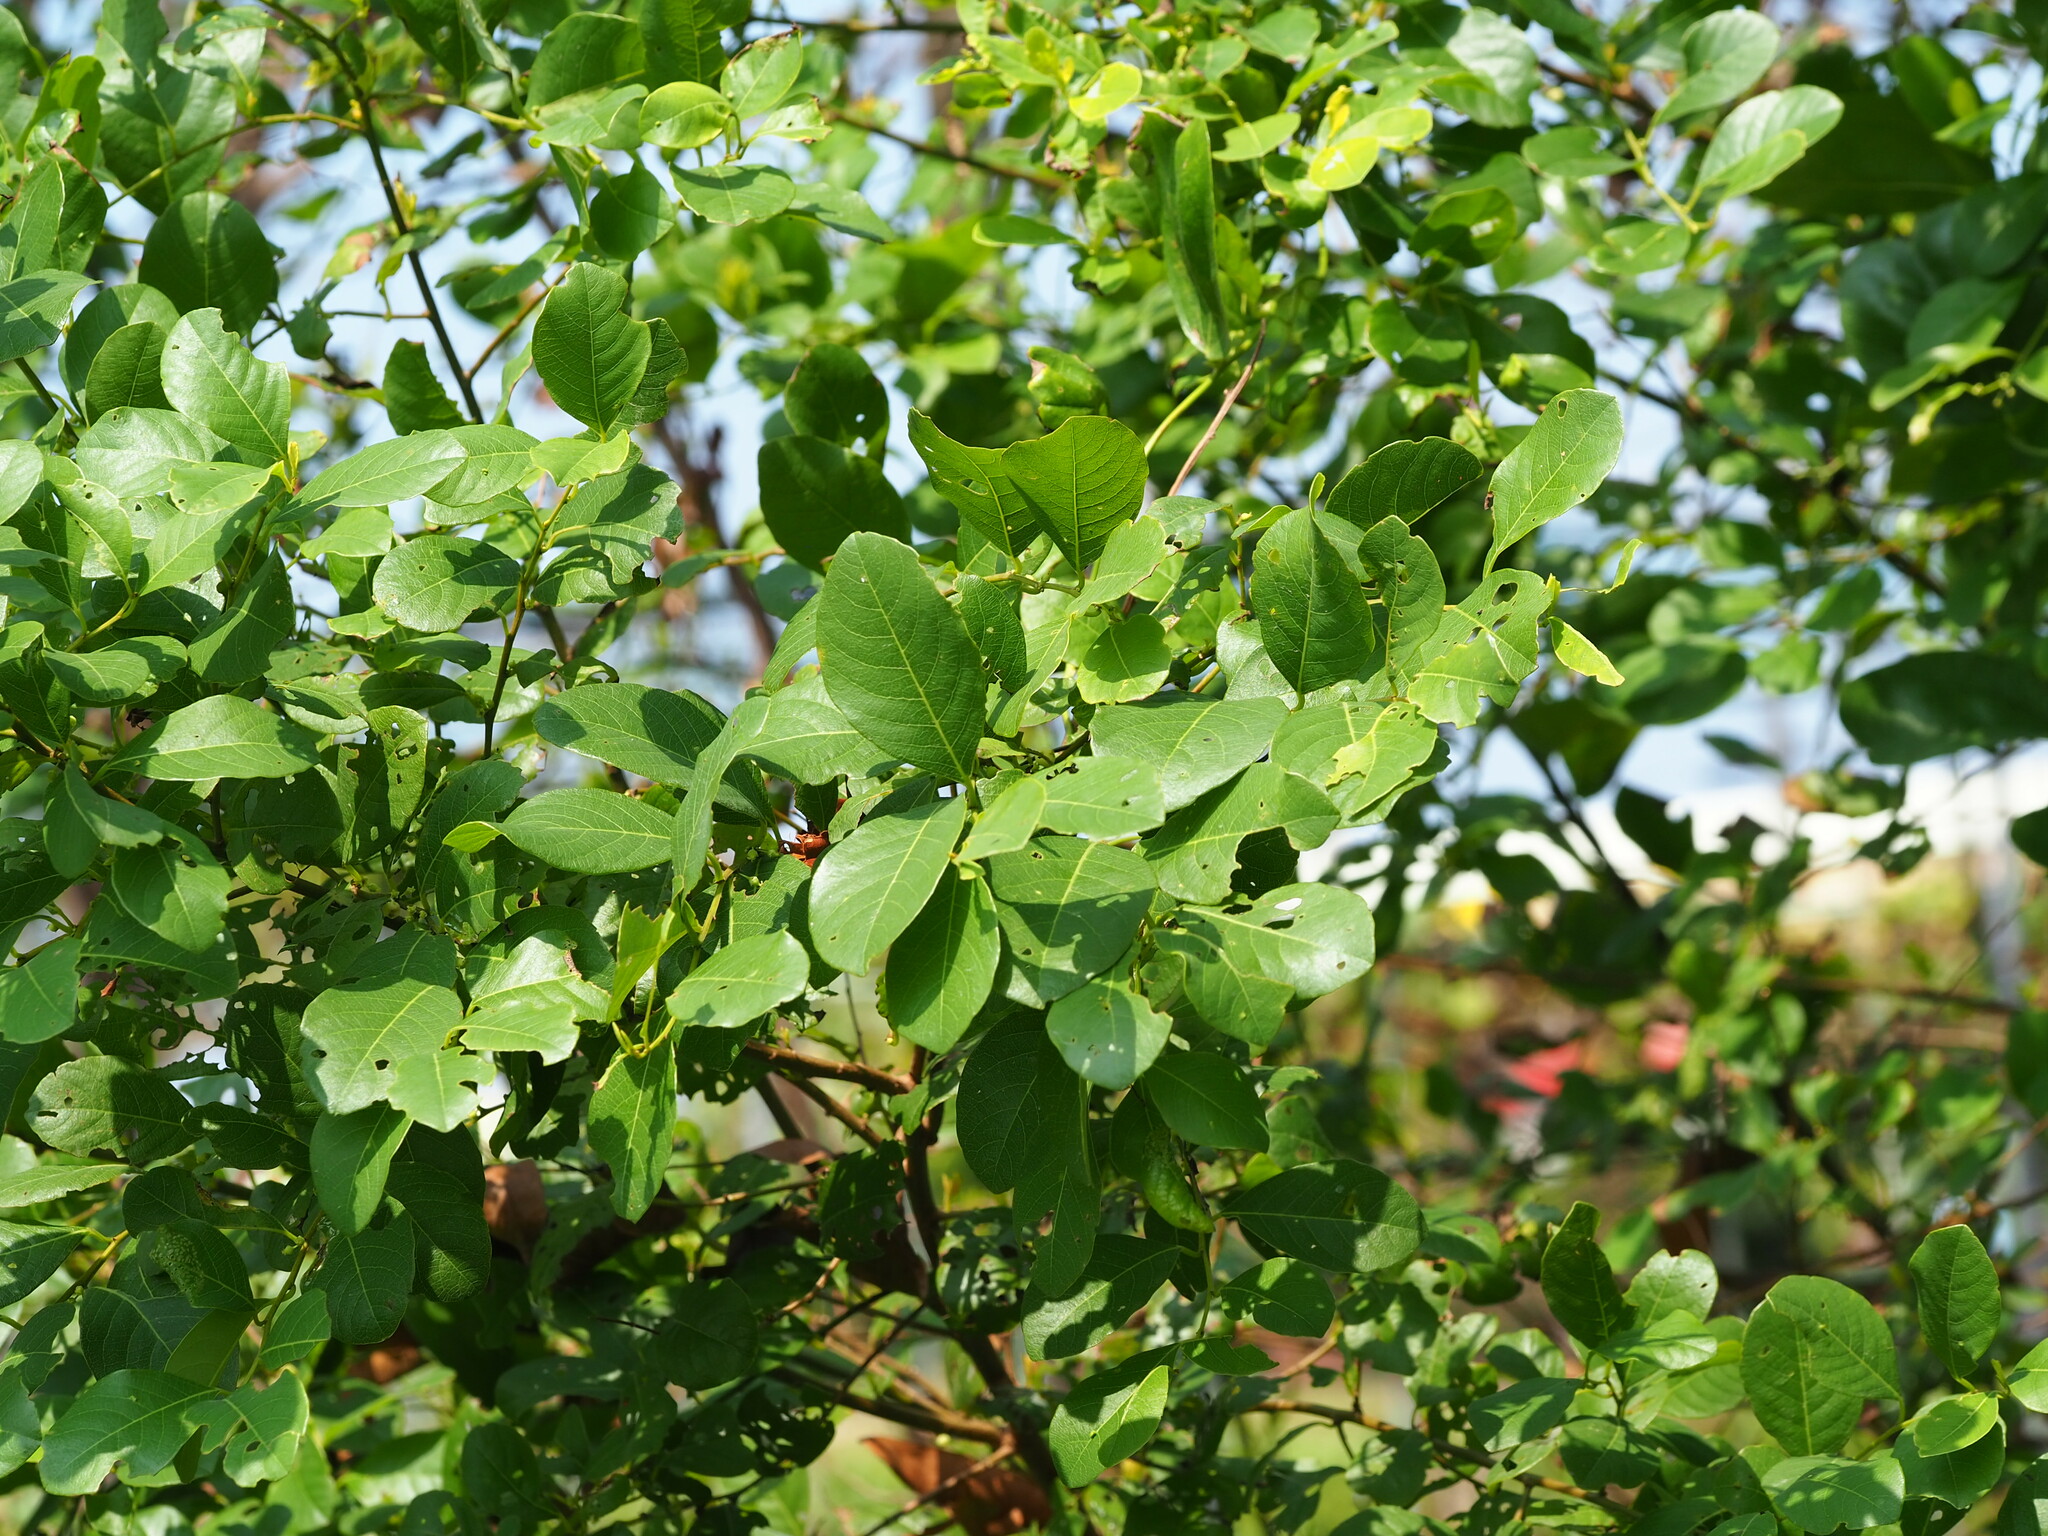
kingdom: Plantae
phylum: Tracheophyta
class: Magnoliopsida
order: Malpighiales
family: Phyllanthaceae
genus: Flueggea
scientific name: Flueggea virosa
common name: Common bushweed
